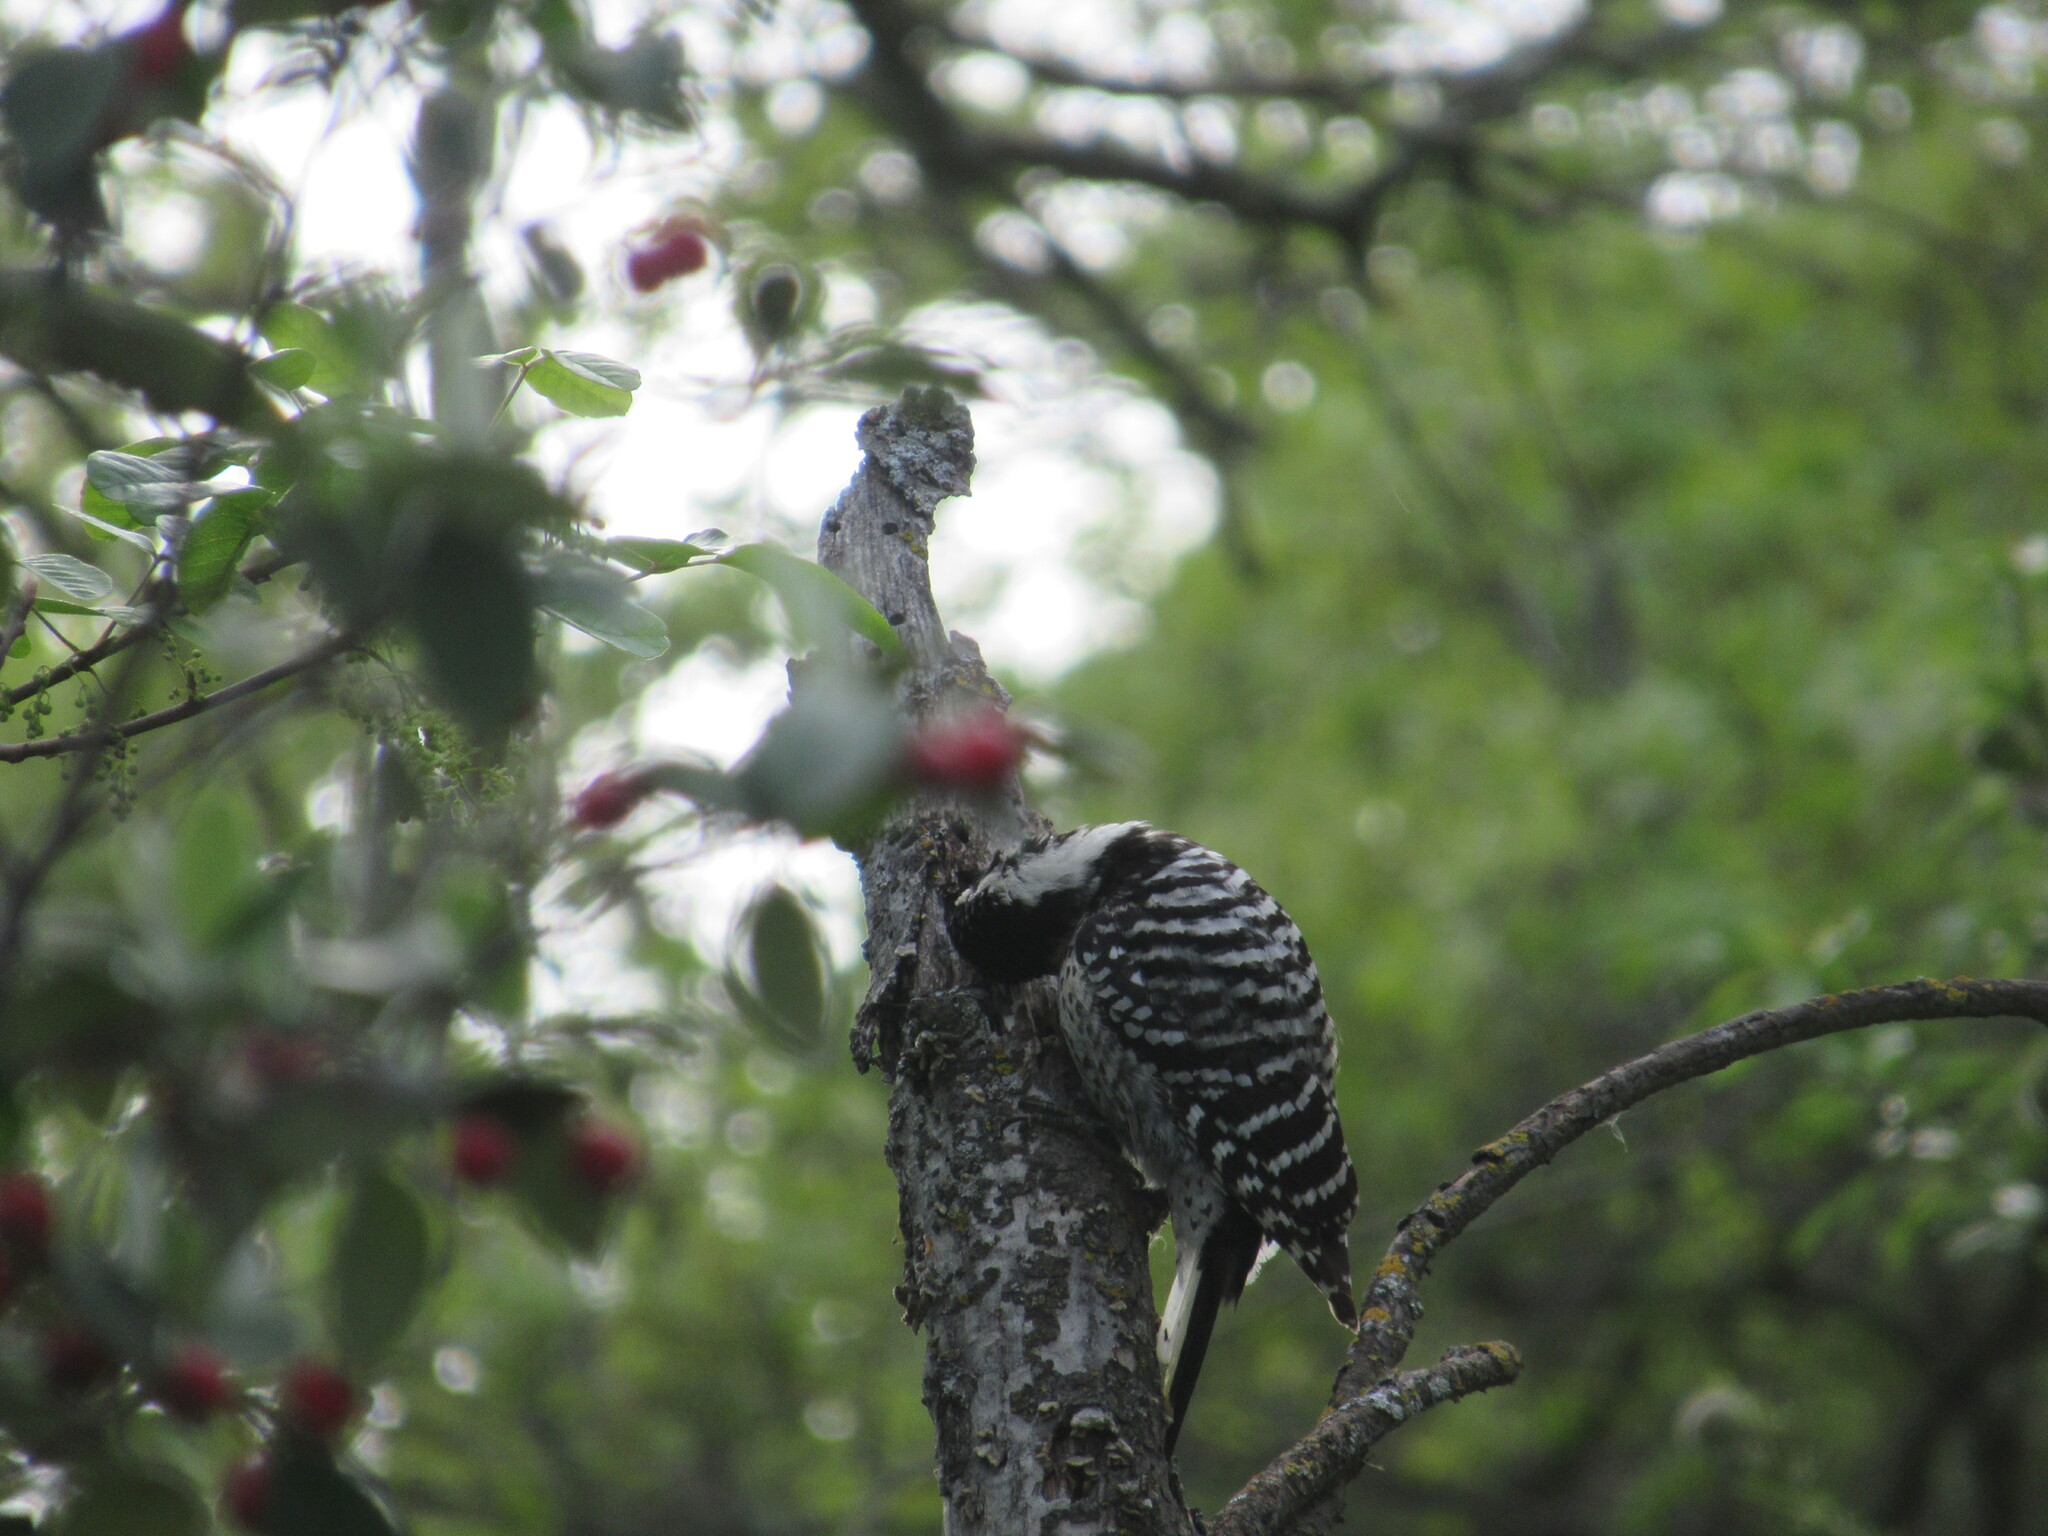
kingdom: Animalia
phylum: Chordata
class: Aves
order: Piciformes
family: Picidae
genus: Dryobates
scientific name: Dryobates nuttallii
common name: Nuttall's woodpecker
